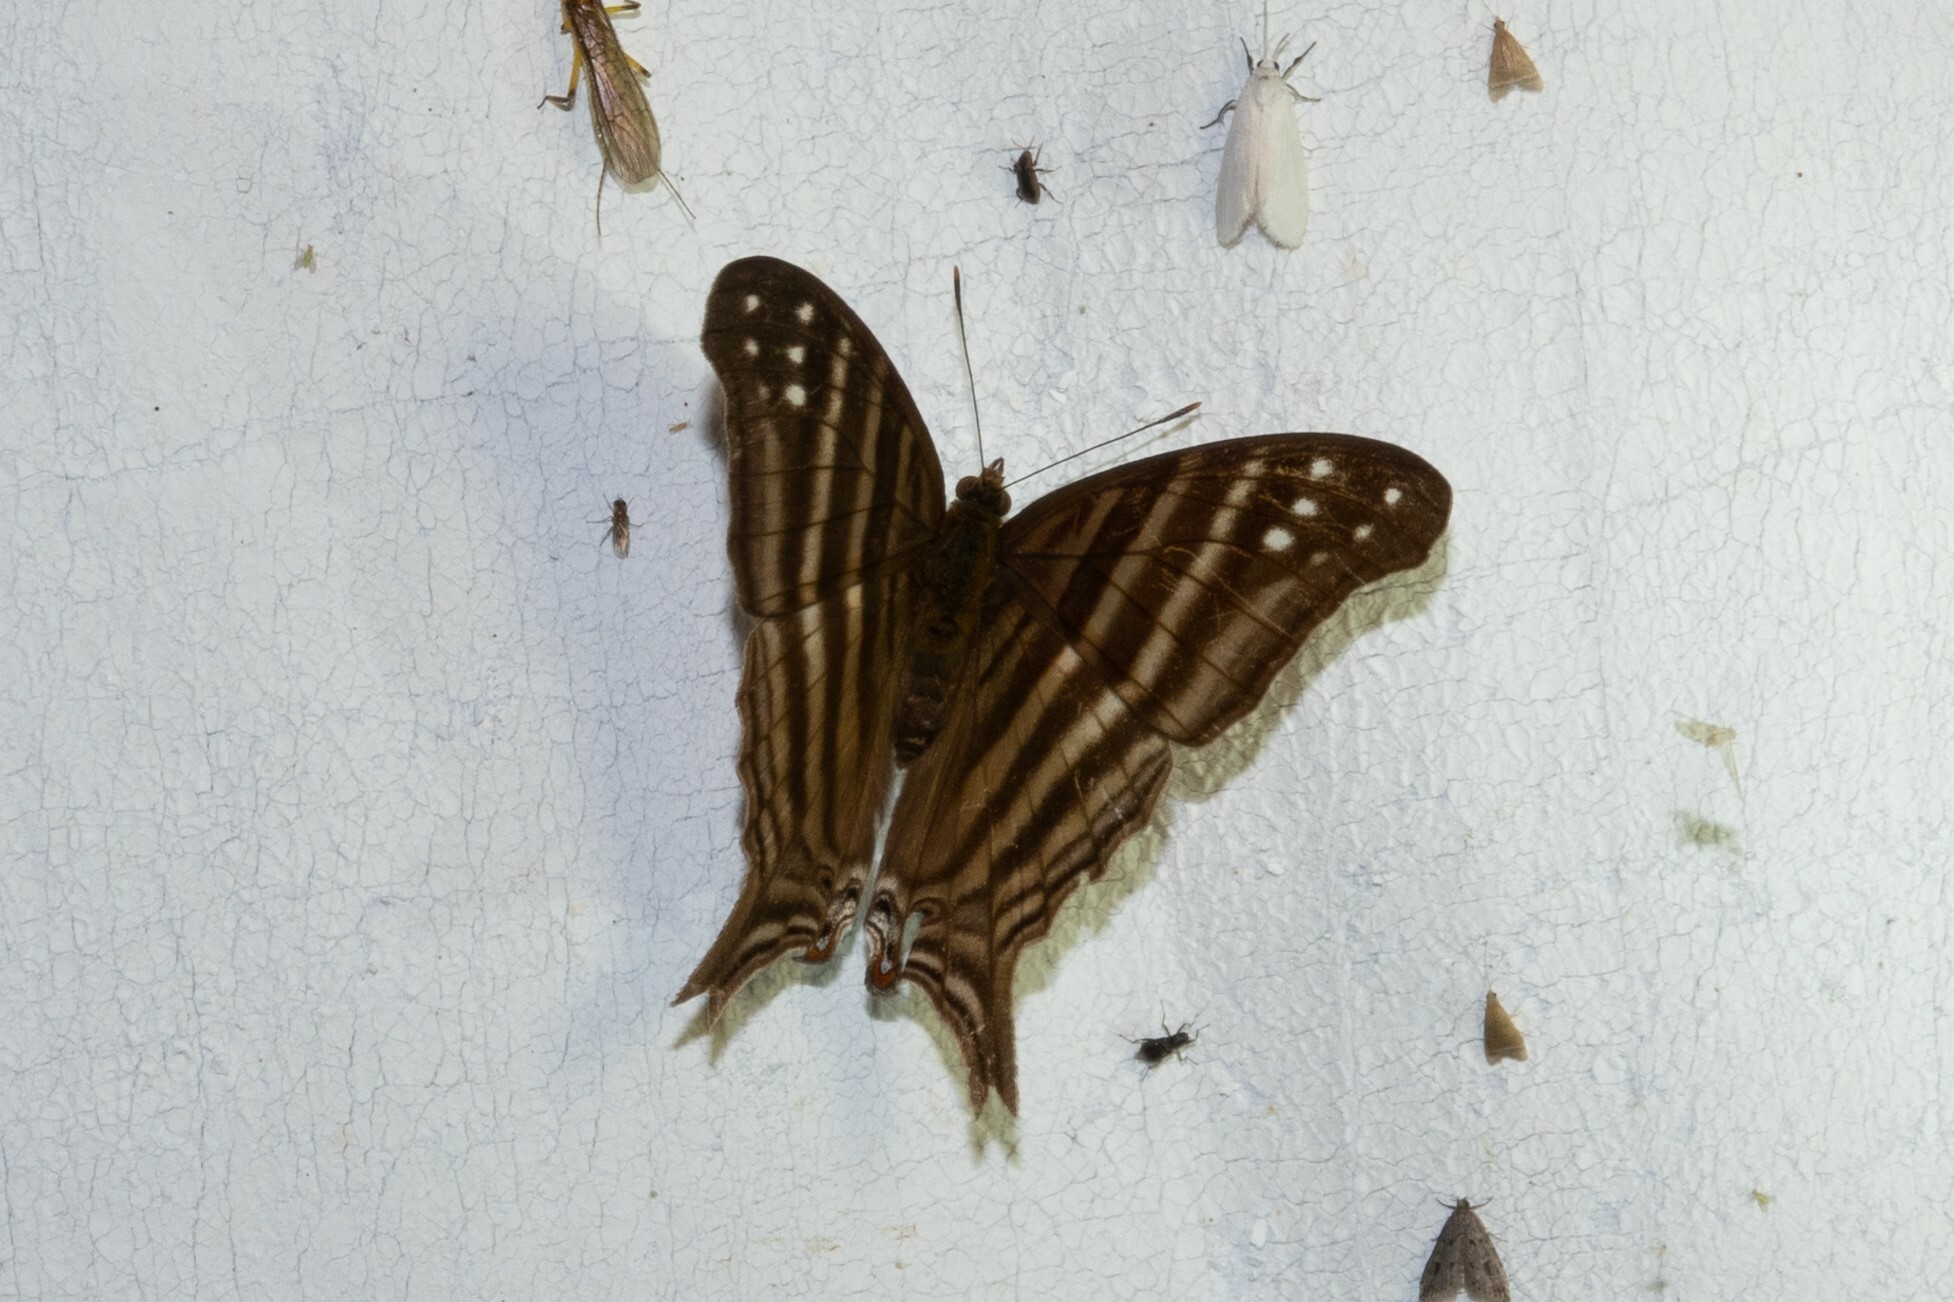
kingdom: Animalia
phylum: Arthropoda
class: Insecta
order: Lepidoptera
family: Nymphalidae
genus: Marpesia
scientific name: Marpesia chiron
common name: Many-banded daggerwing
